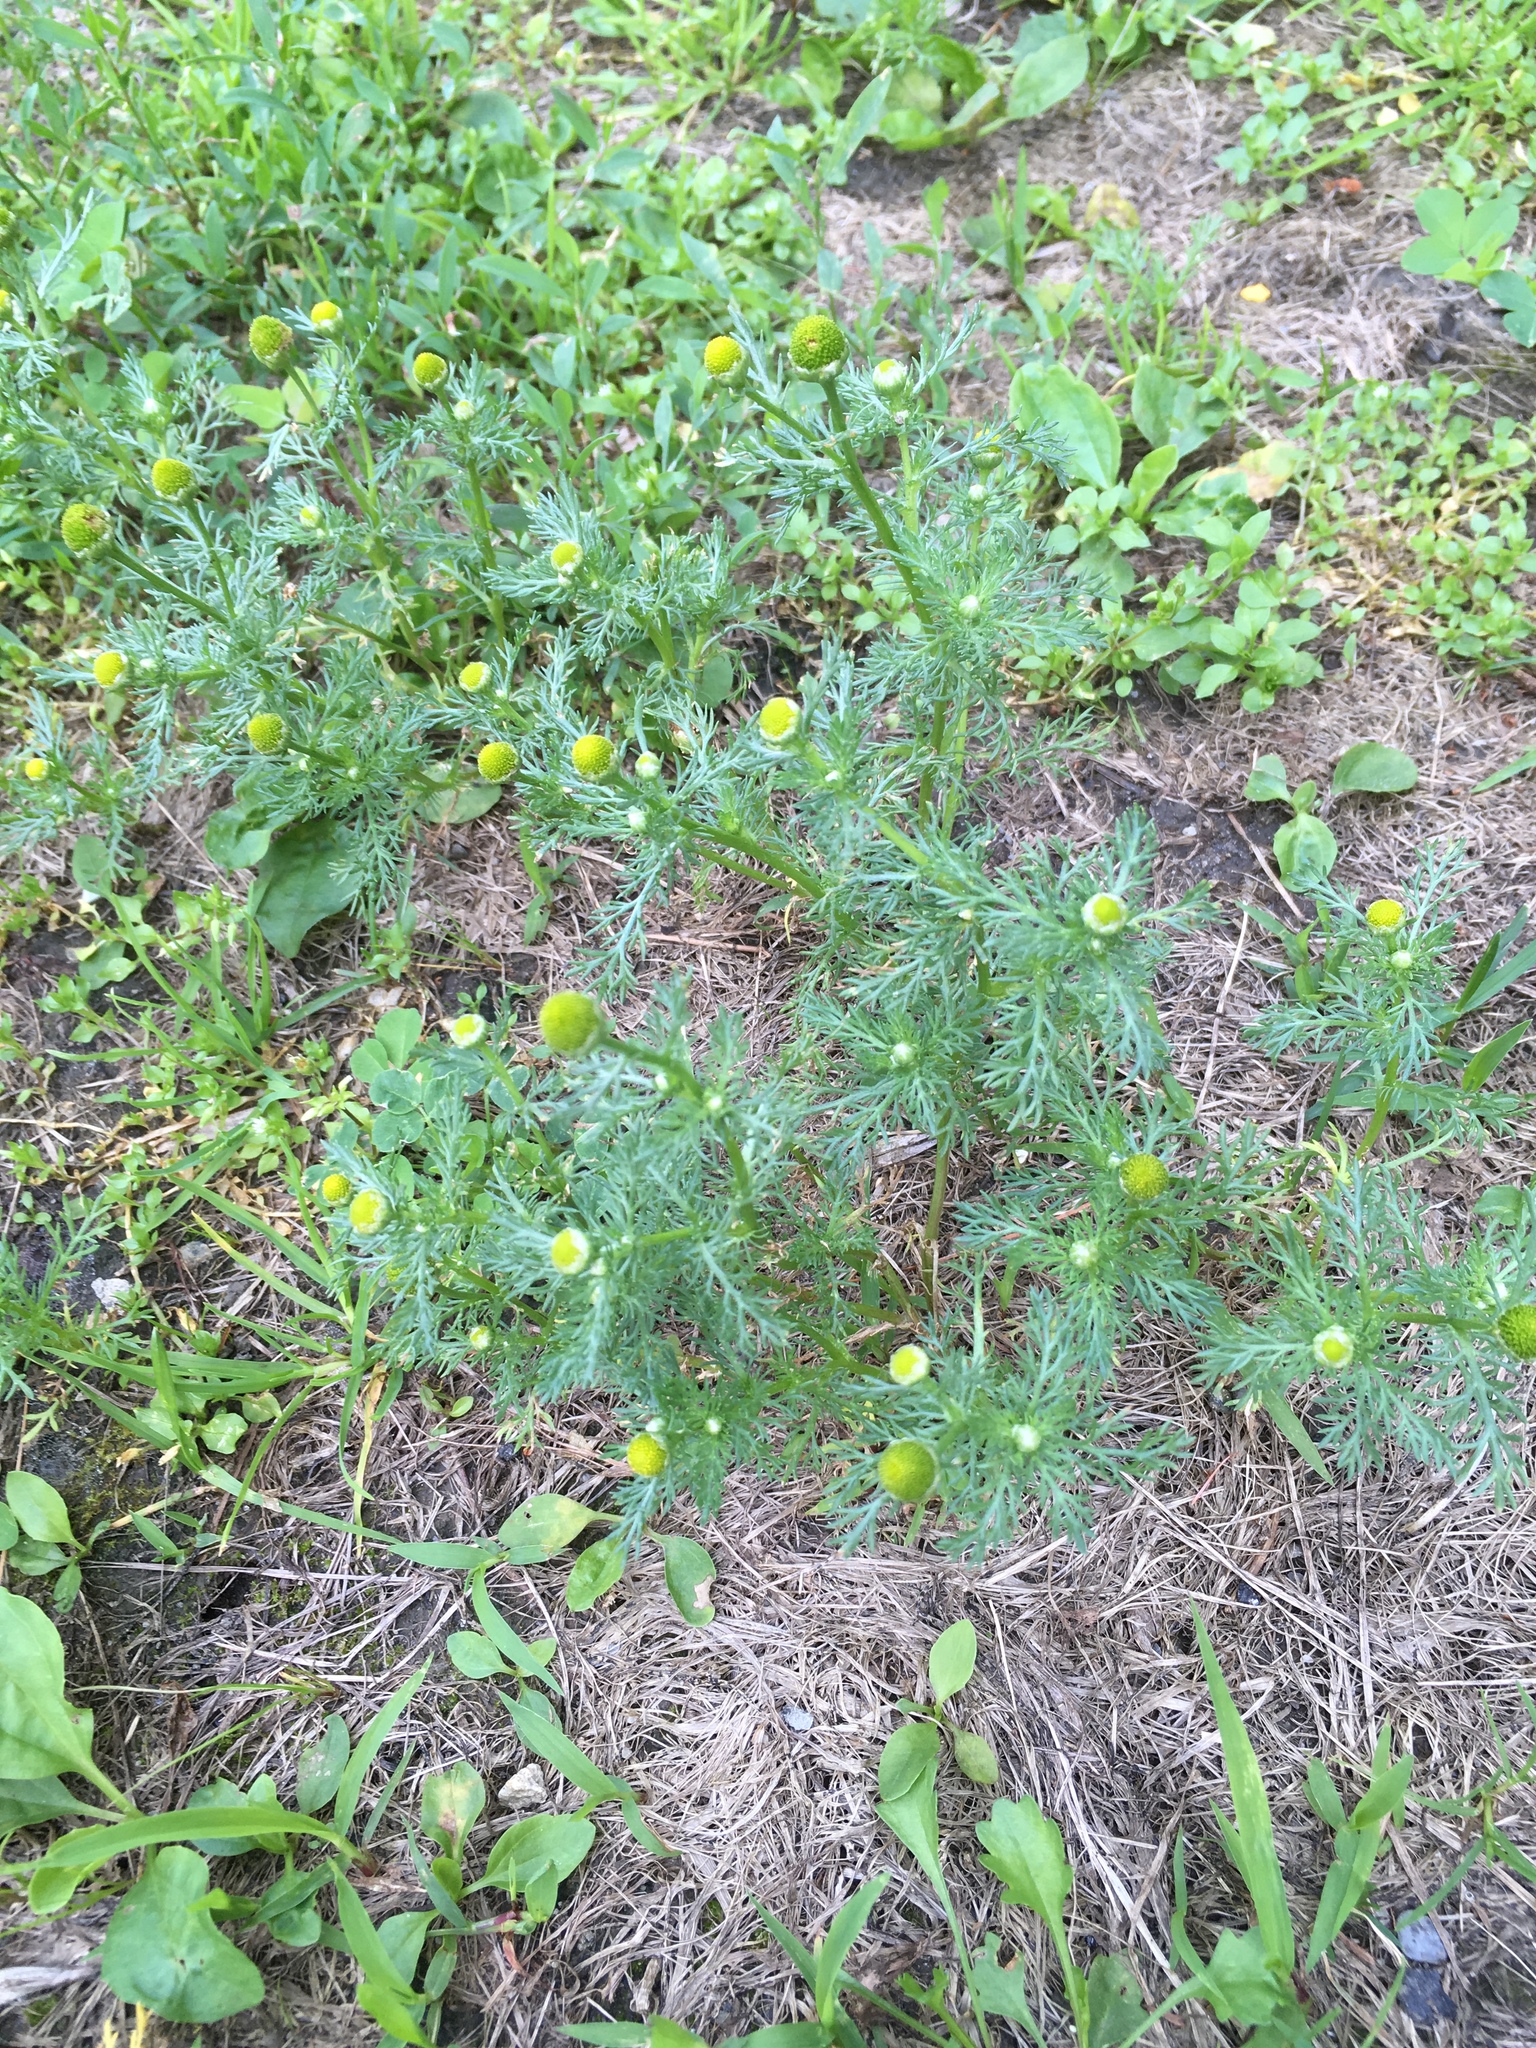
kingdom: Plantae
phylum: Tracheophyta
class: Magnoliopsida
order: Asterales
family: Asteraceae
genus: Matricaria
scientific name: Matricaria discoidea
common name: Disc mayweed
